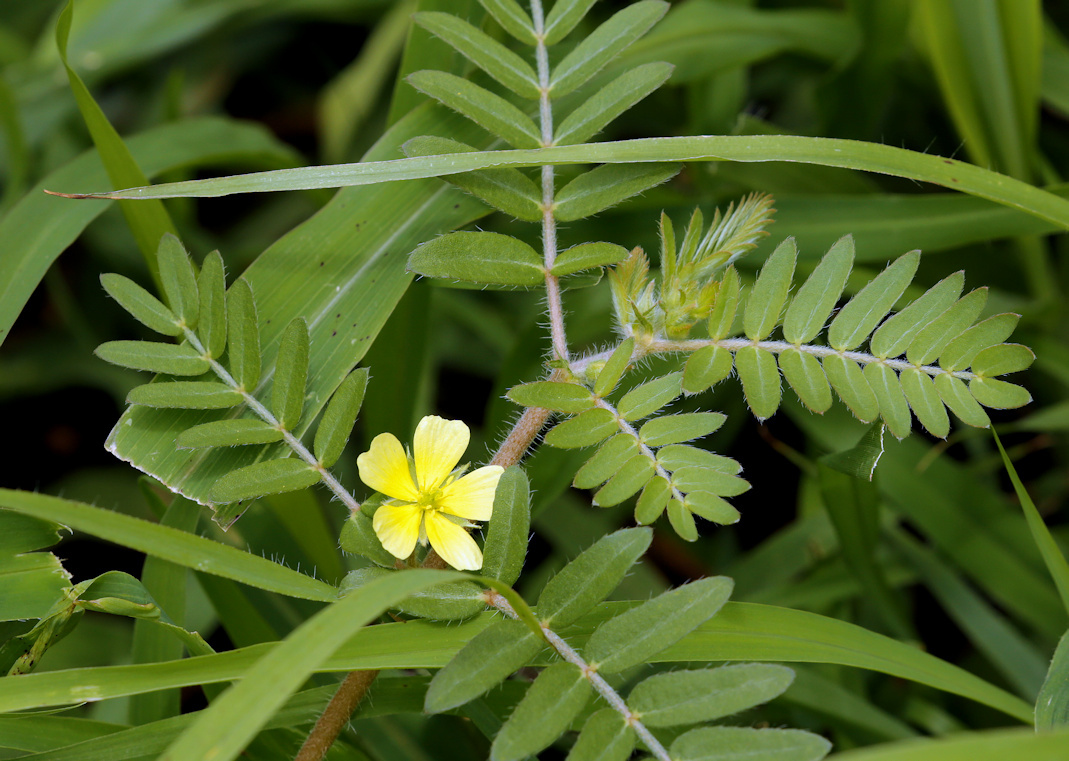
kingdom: Plantae
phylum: Tracheophyta
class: Magnoliopsida
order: Zygophyllales
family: Zygophyllaceae
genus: Tribulus
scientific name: Tribulus terrestris
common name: Puncturevine
